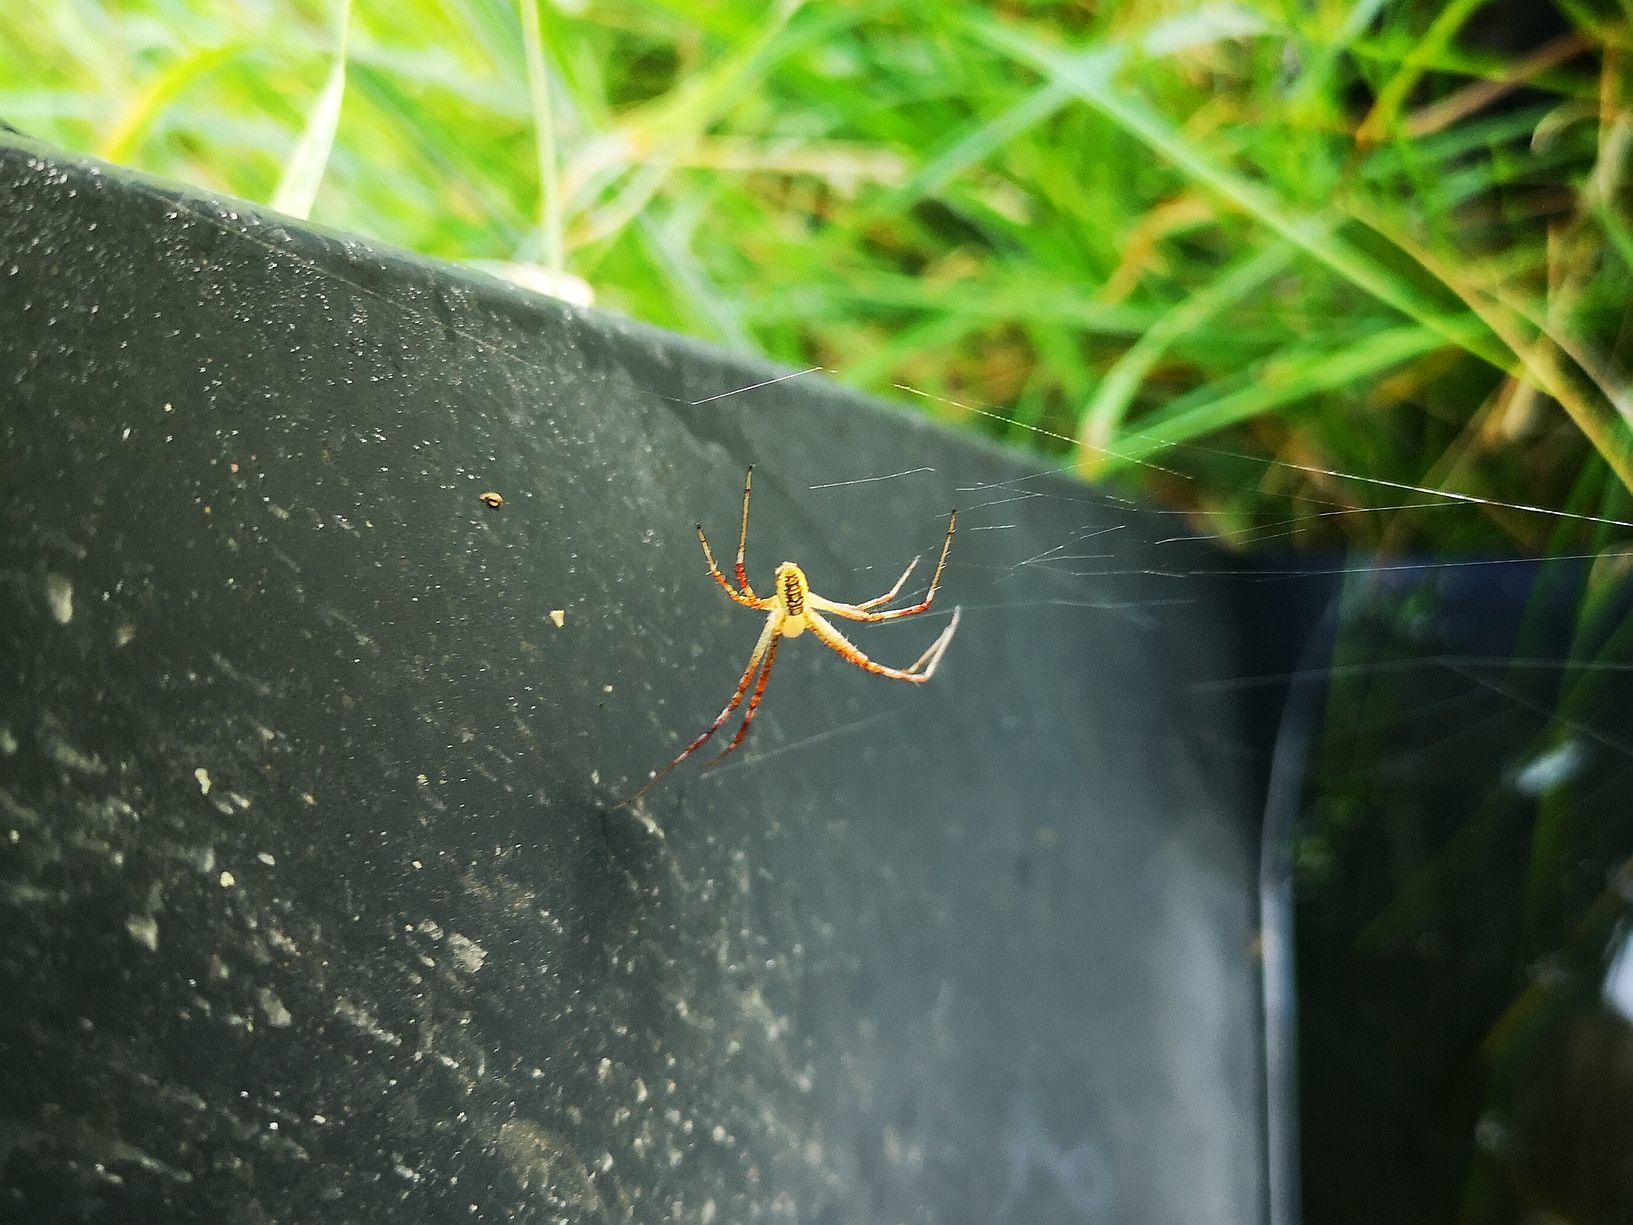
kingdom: Animalia
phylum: Arthropoda
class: Arachnida
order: Araneae
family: Araneidae
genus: Argiope
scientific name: Argiope bruennichi
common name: Wasp spider
